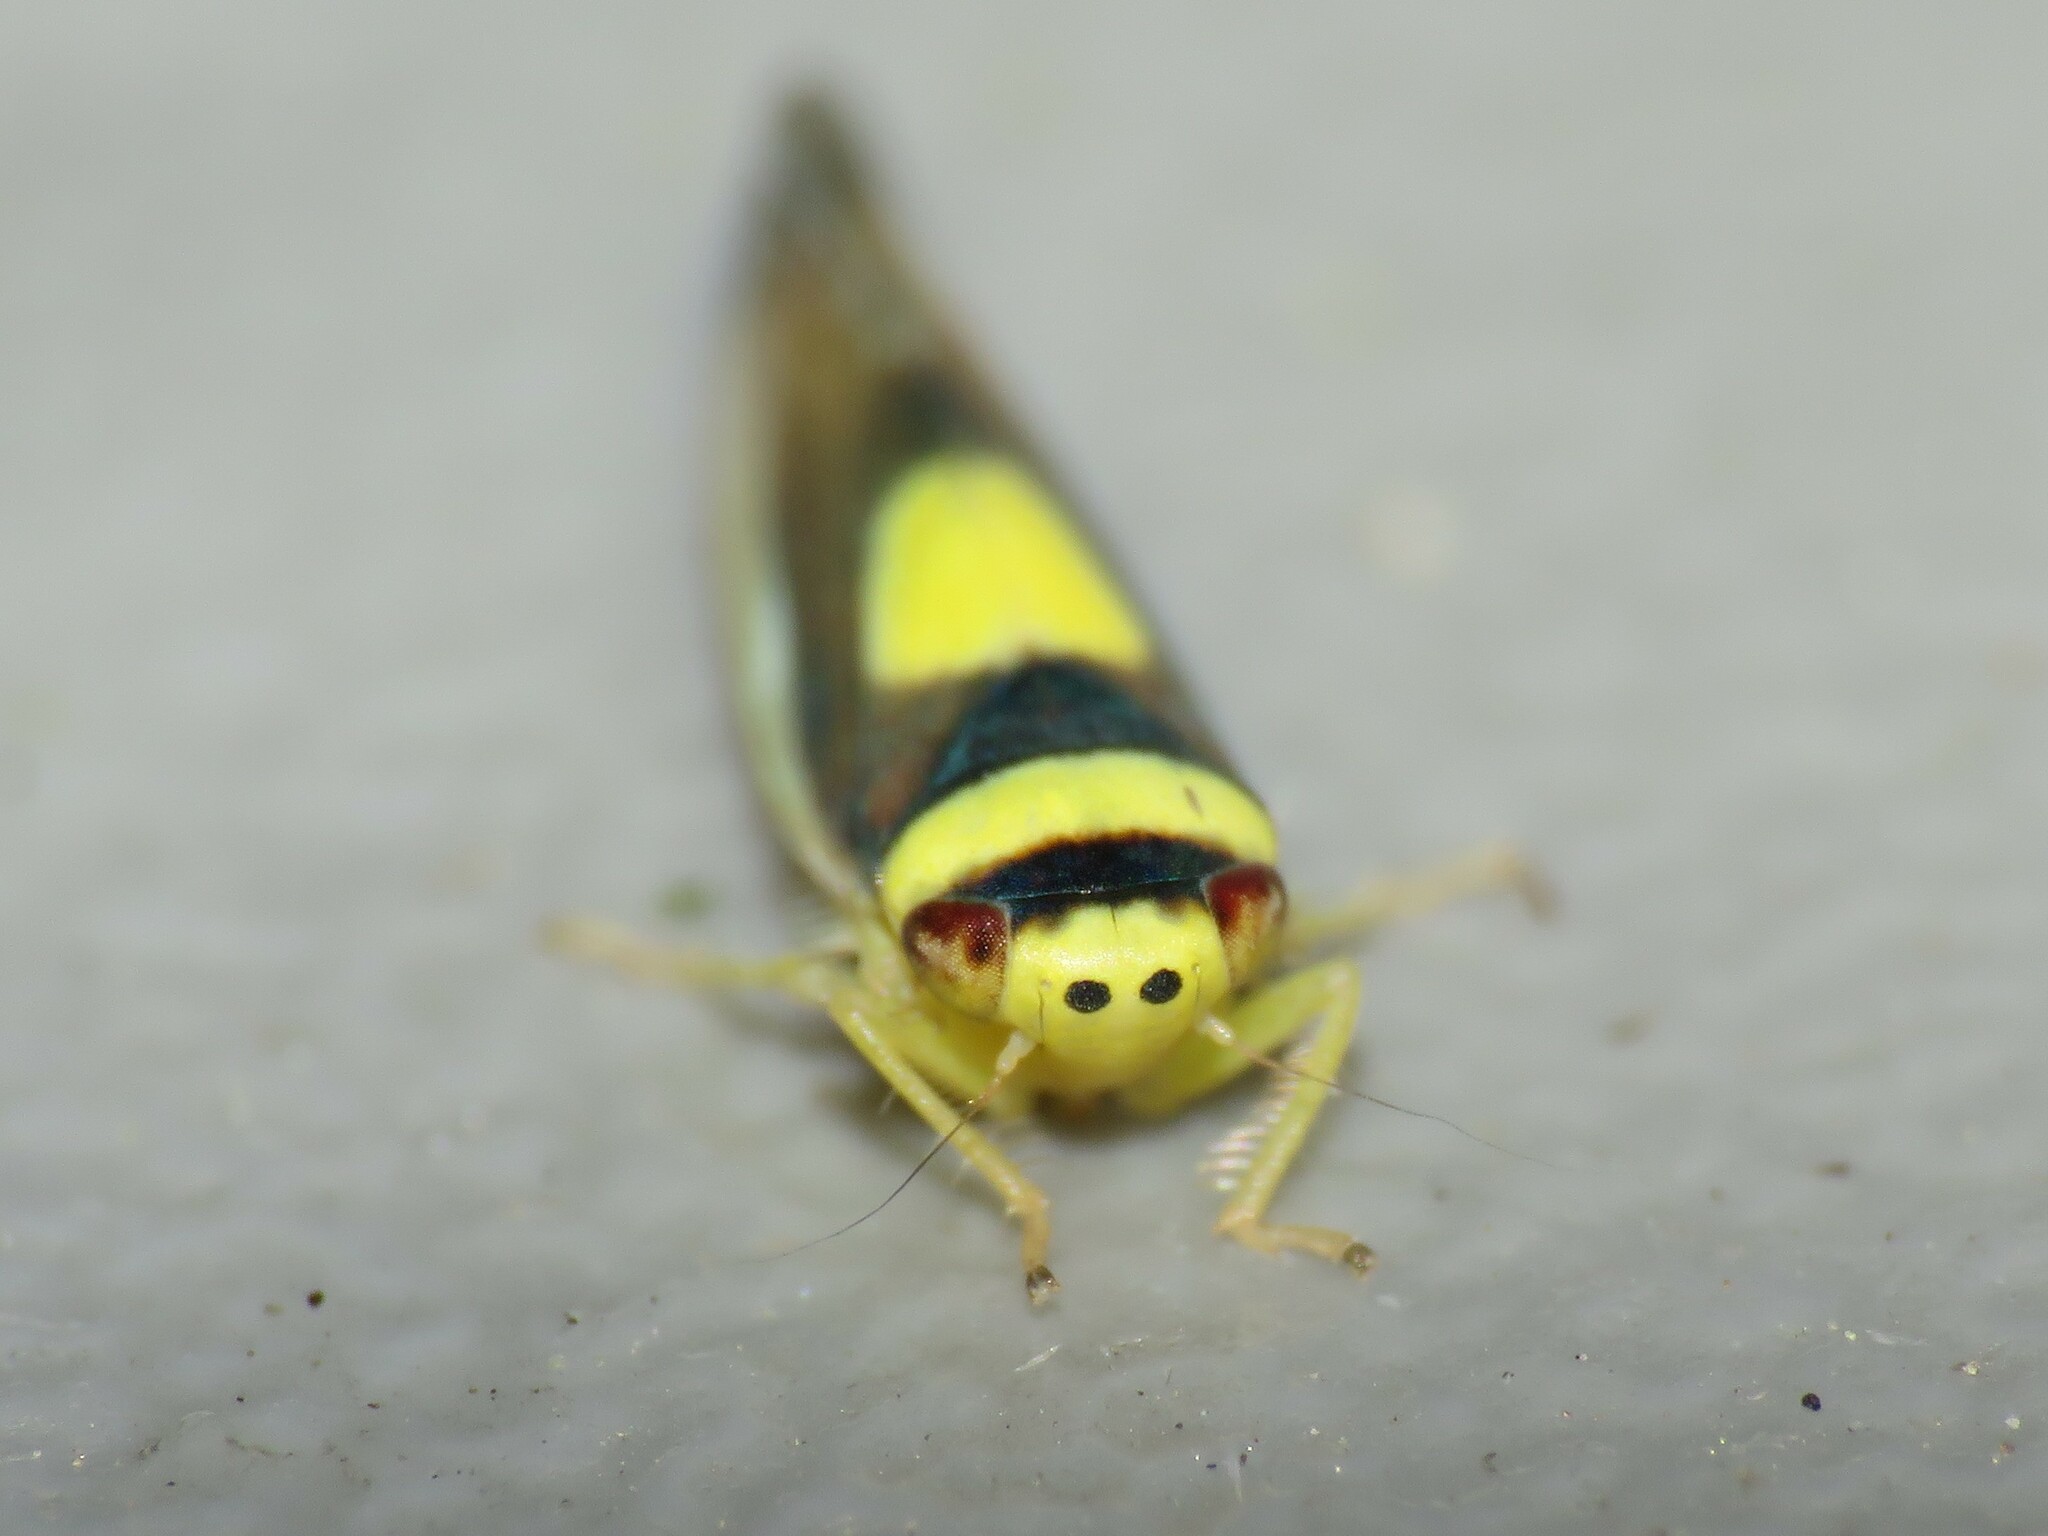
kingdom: Animalia
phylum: Arthropoda
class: Insecta
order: Hemiptera
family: Cicadellidae
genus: Colladonus
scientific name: Colladonus clitellarius
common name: The saddleback leafhopper
